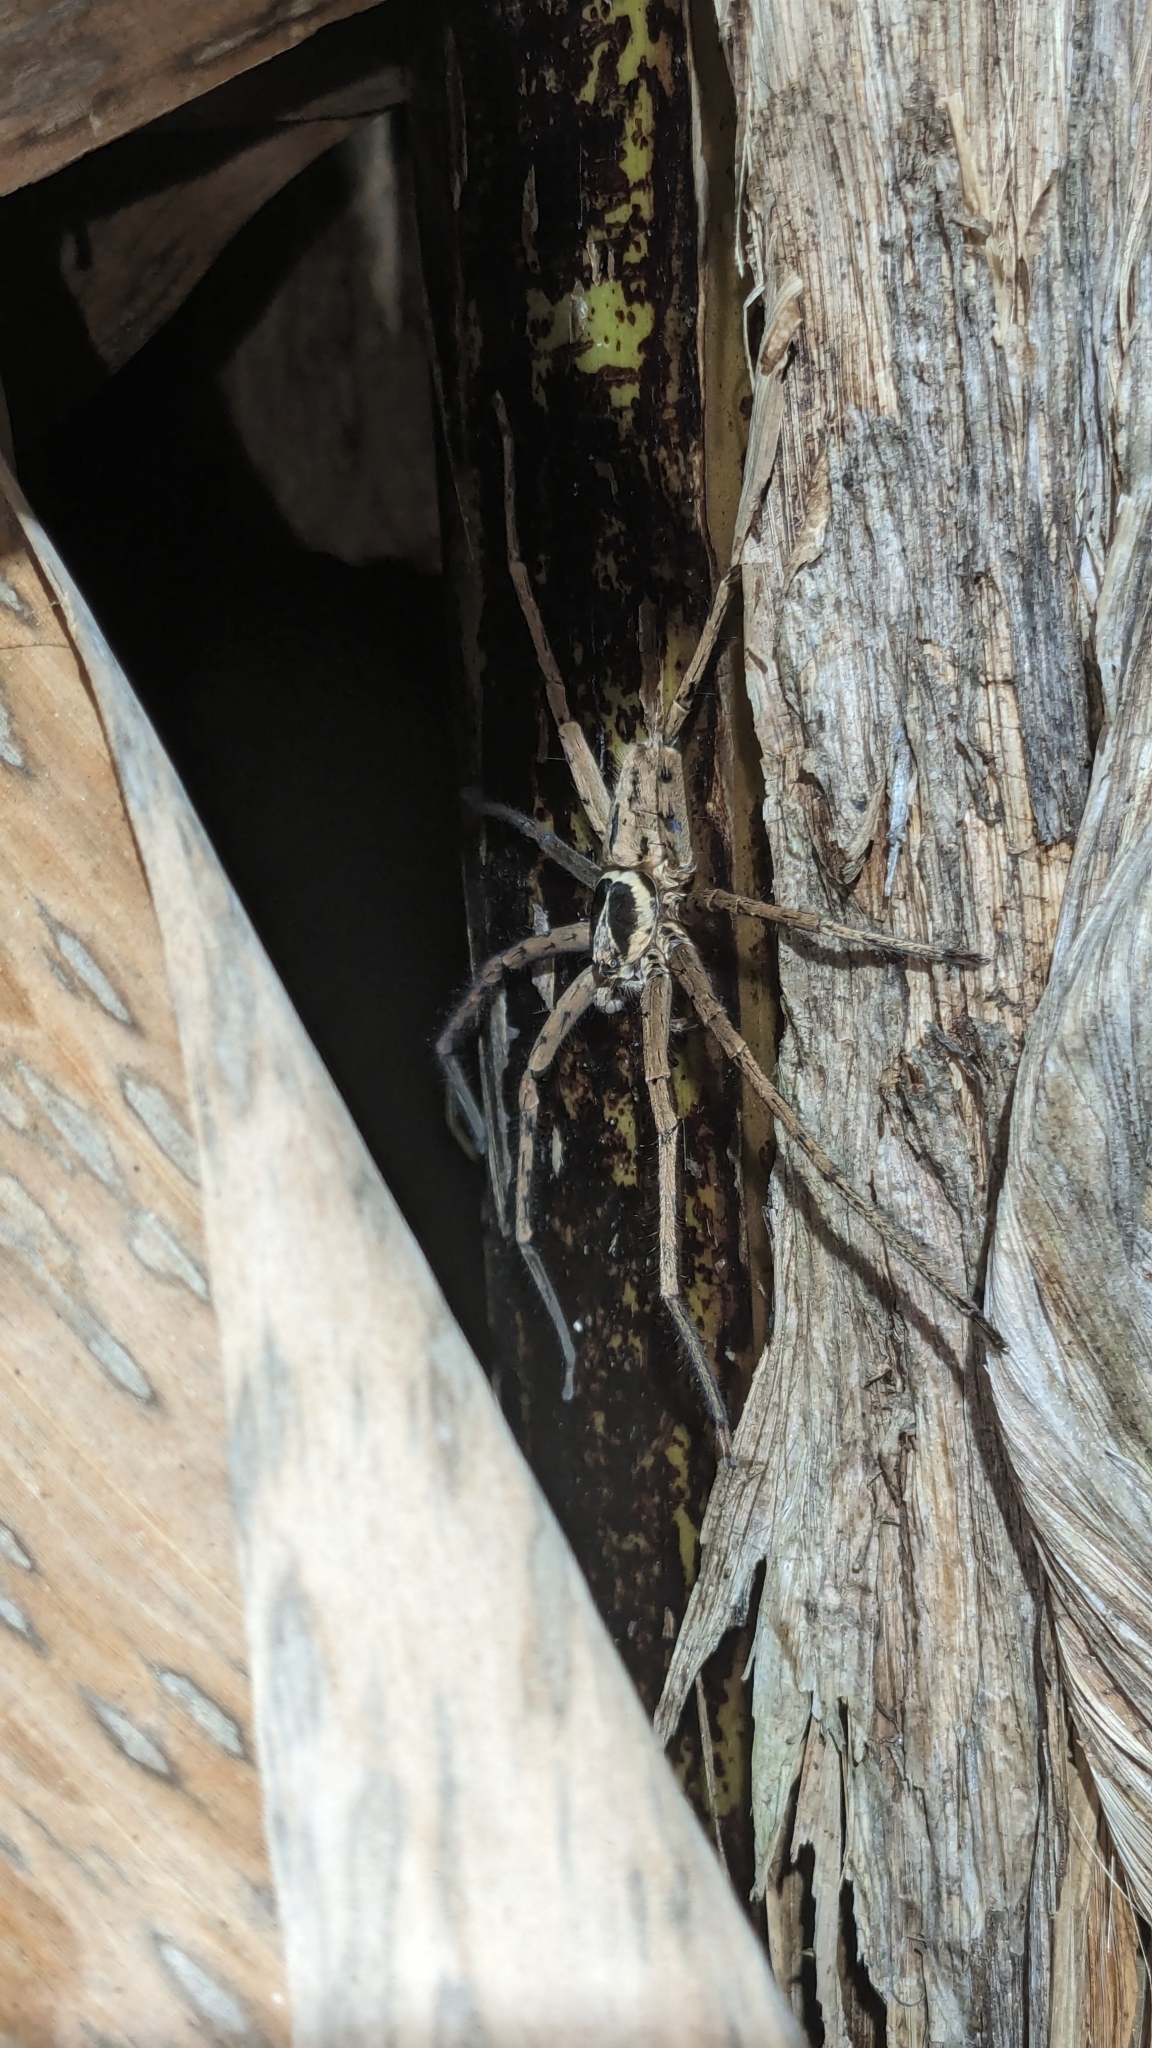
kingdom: Animalia
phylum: Arthropoda
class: Arachnida
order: Araneae
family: Sparassidae
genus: Heteropoda
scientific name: Heteropoda venatoria
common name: Huntsman spider
